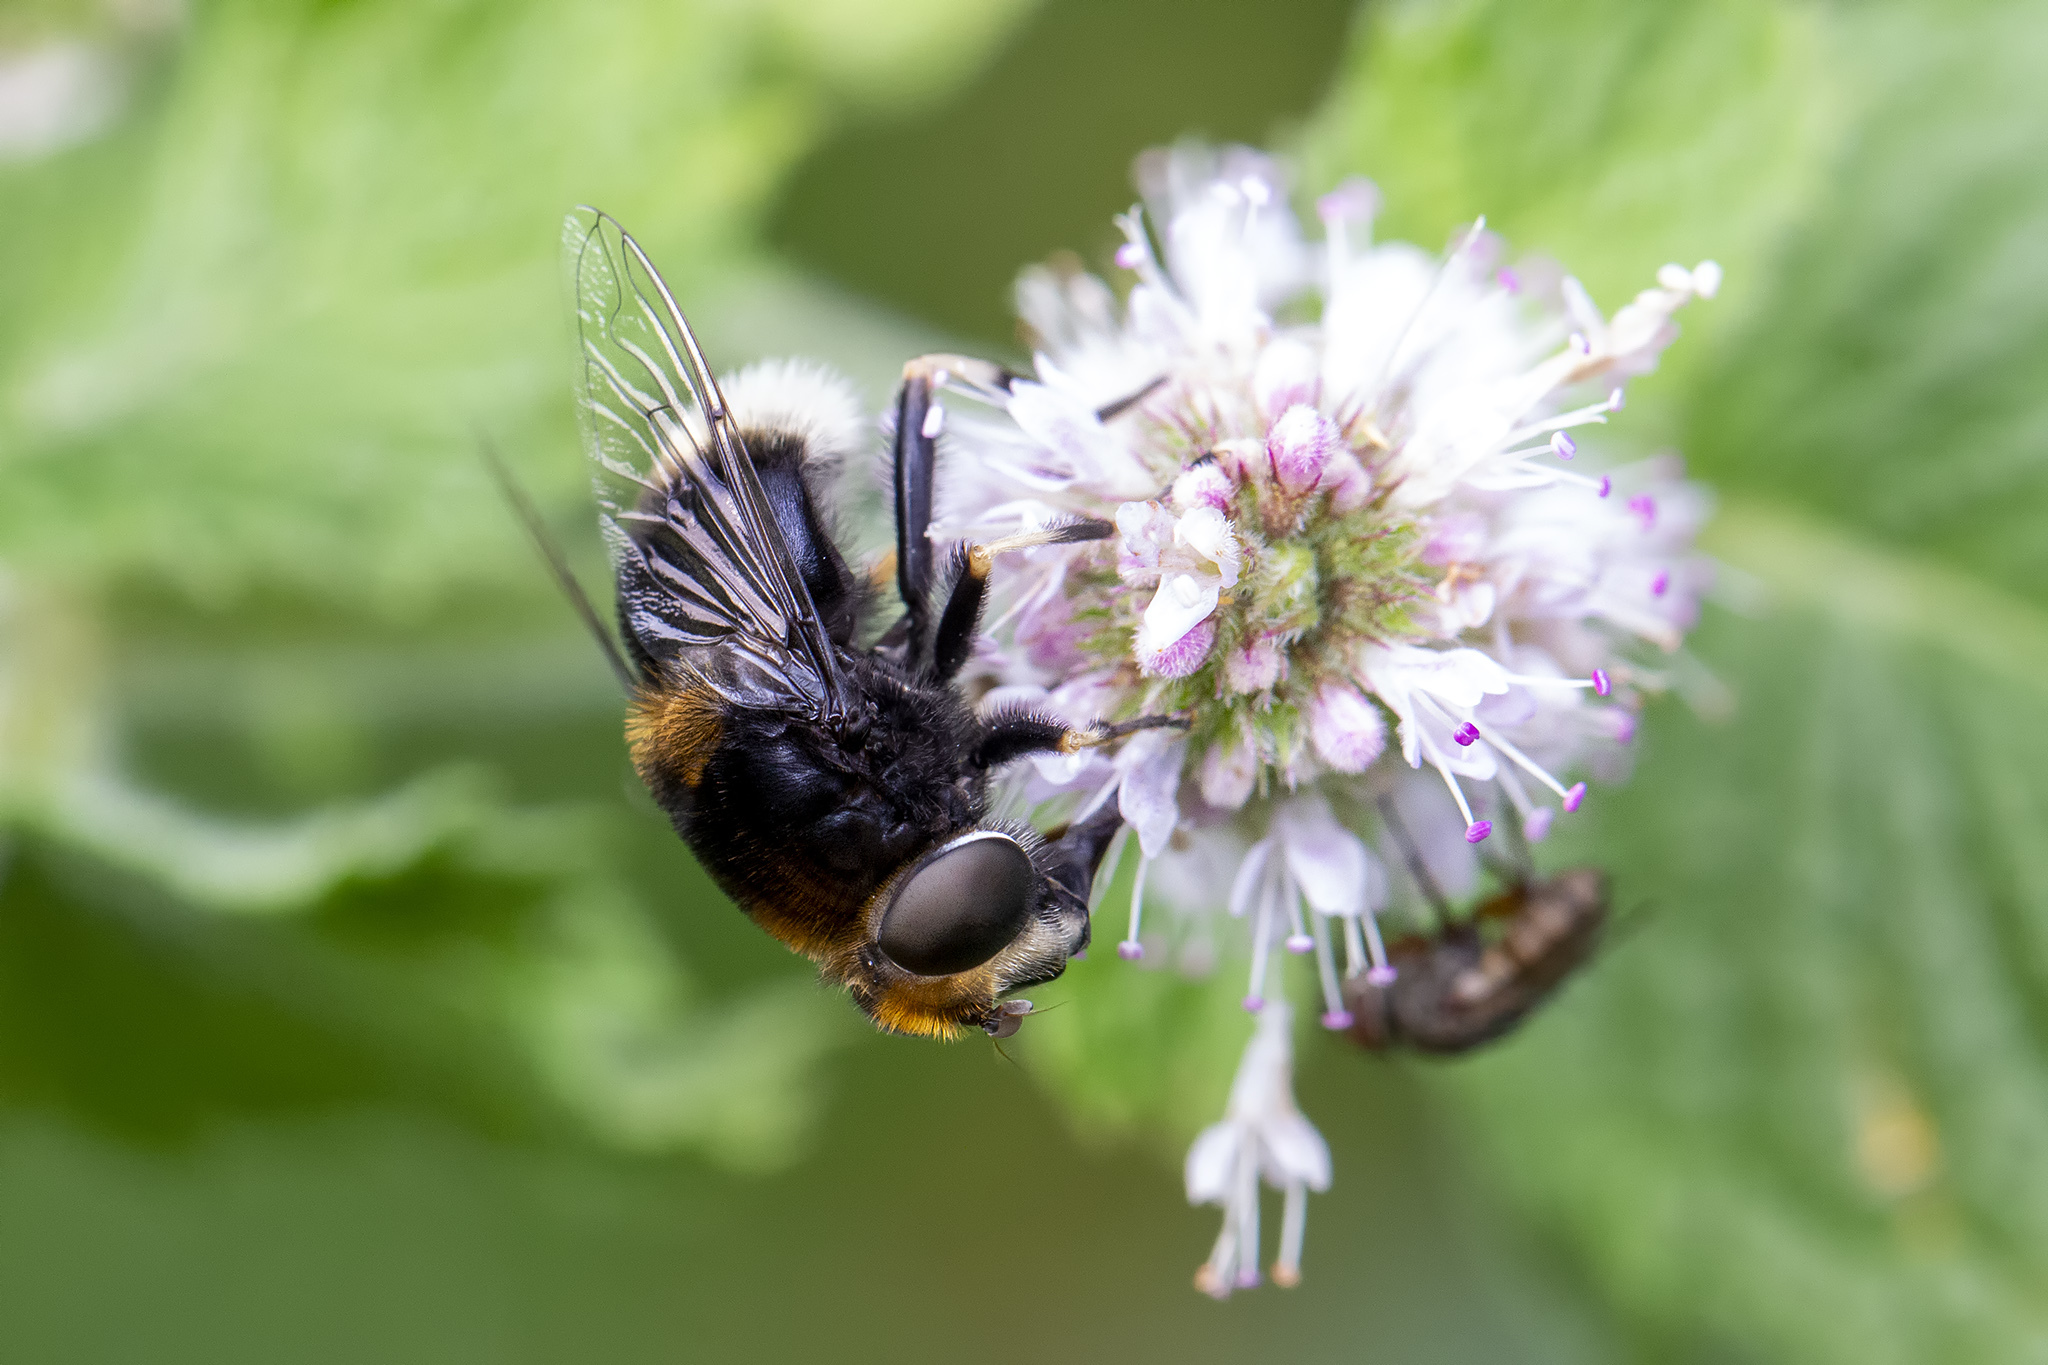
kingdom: Animalia
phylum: Arthropoda
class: Insecta
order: Diptera
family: Syrphidae
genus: Eristalis
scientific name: Eristalis intricaria
